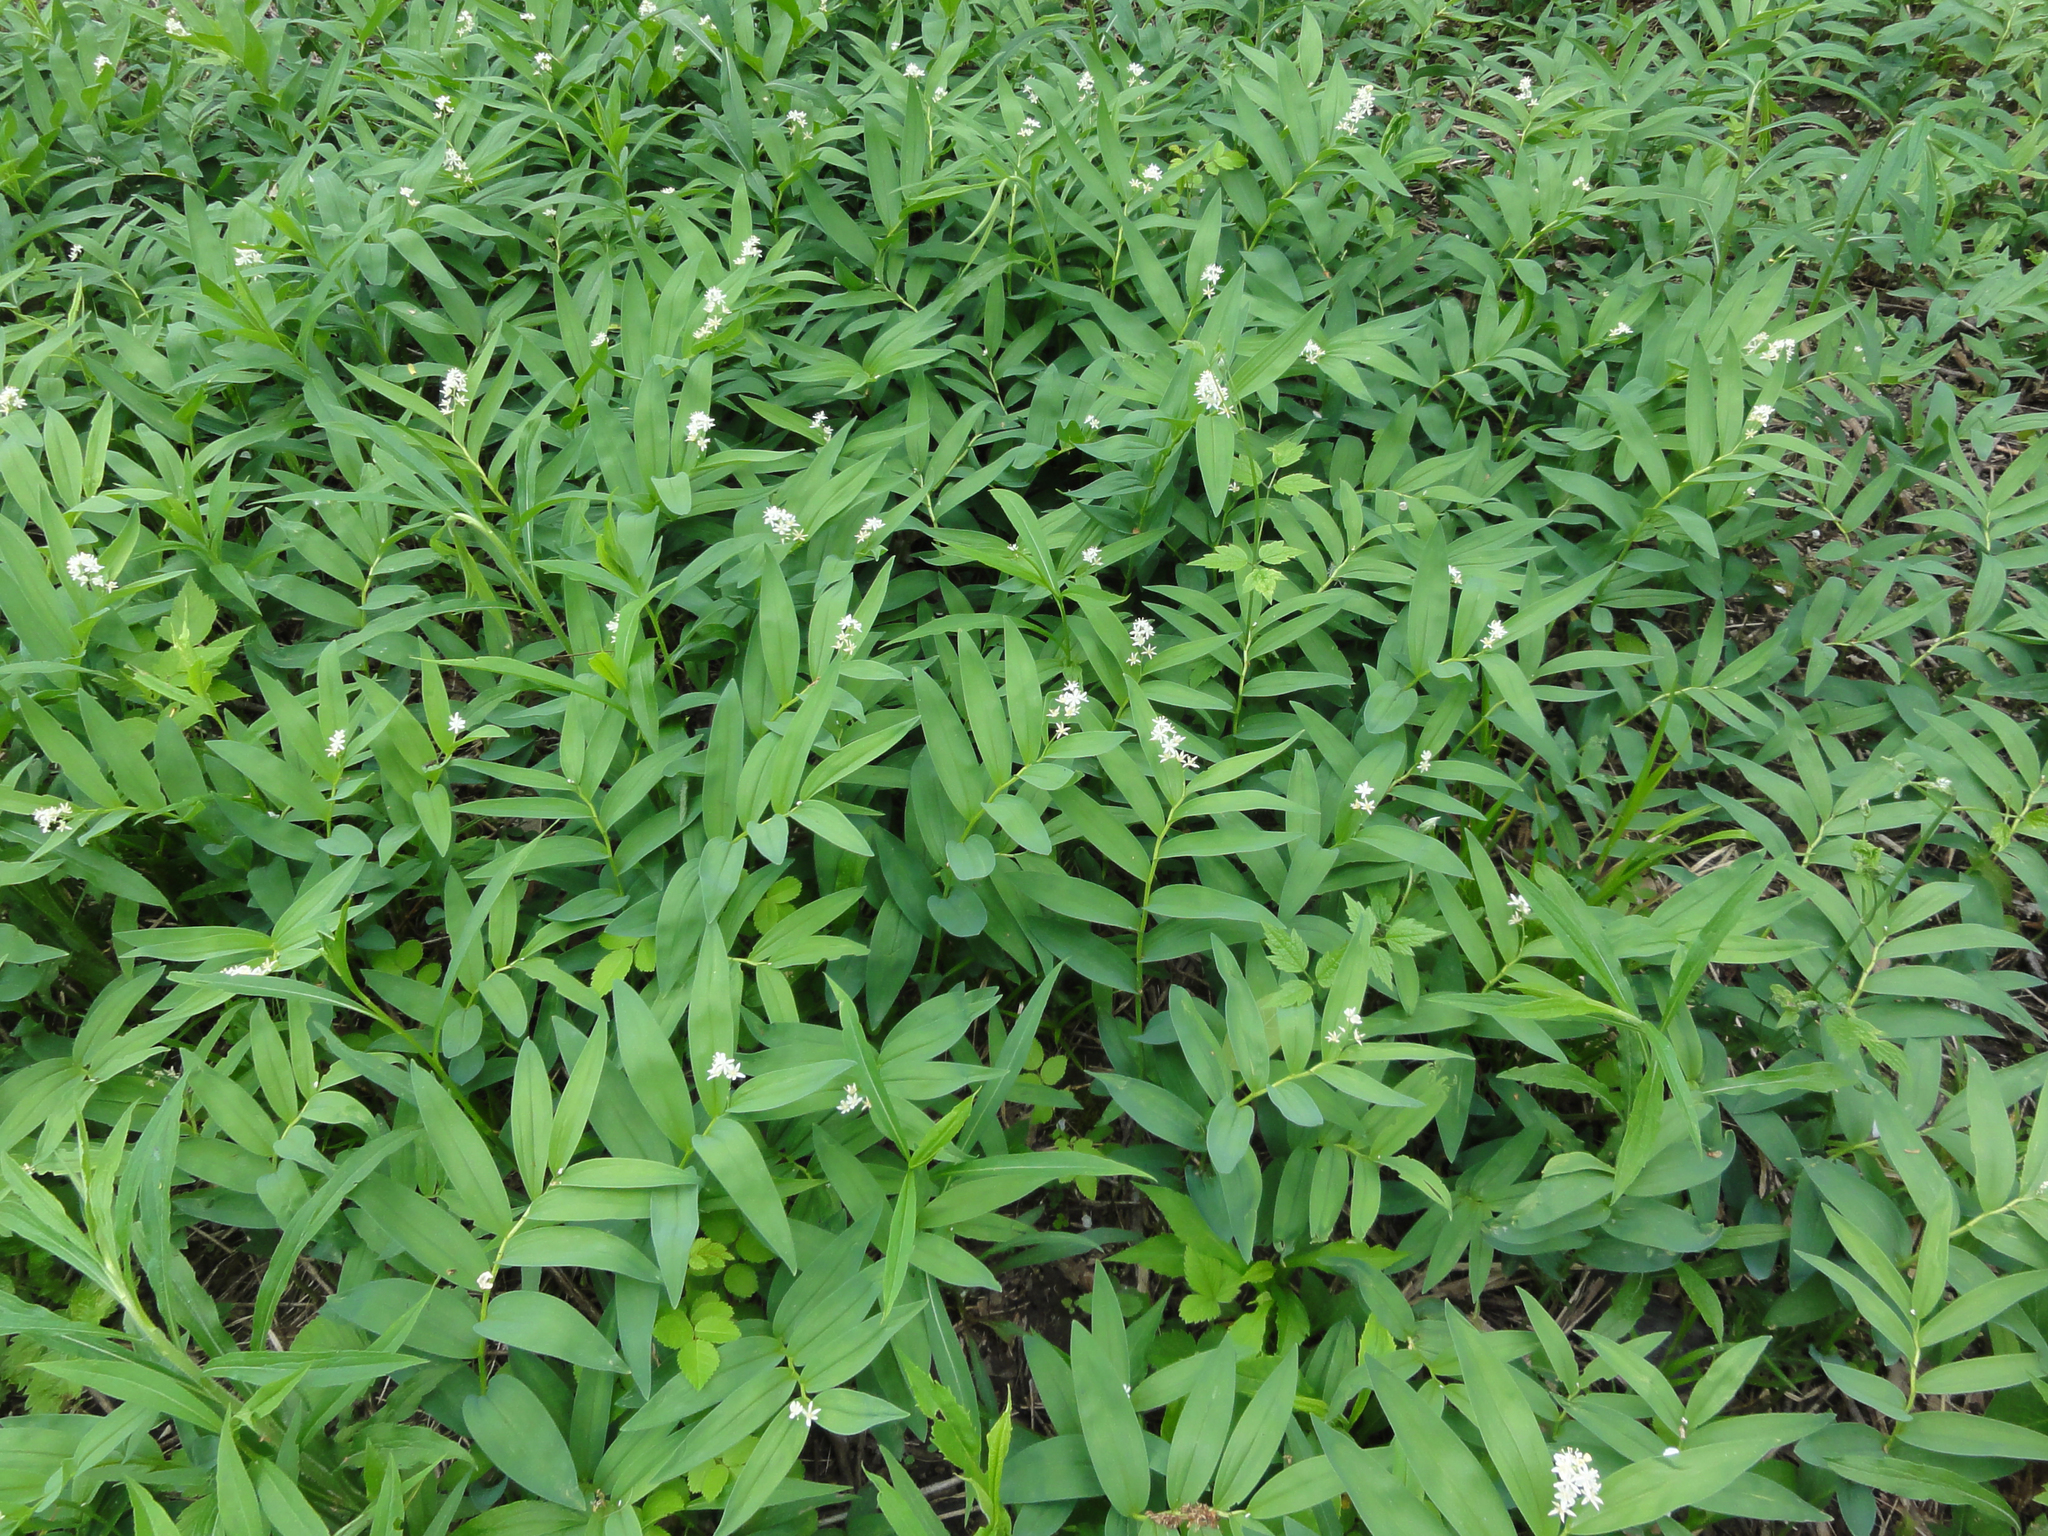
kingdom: Plantae
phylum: Tracheophyta
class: Liliopsida
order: Asparagales
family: Asparagaceae
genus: Maianthemum
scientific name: Maianthemum stellatum
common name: Little false solomon's seal
